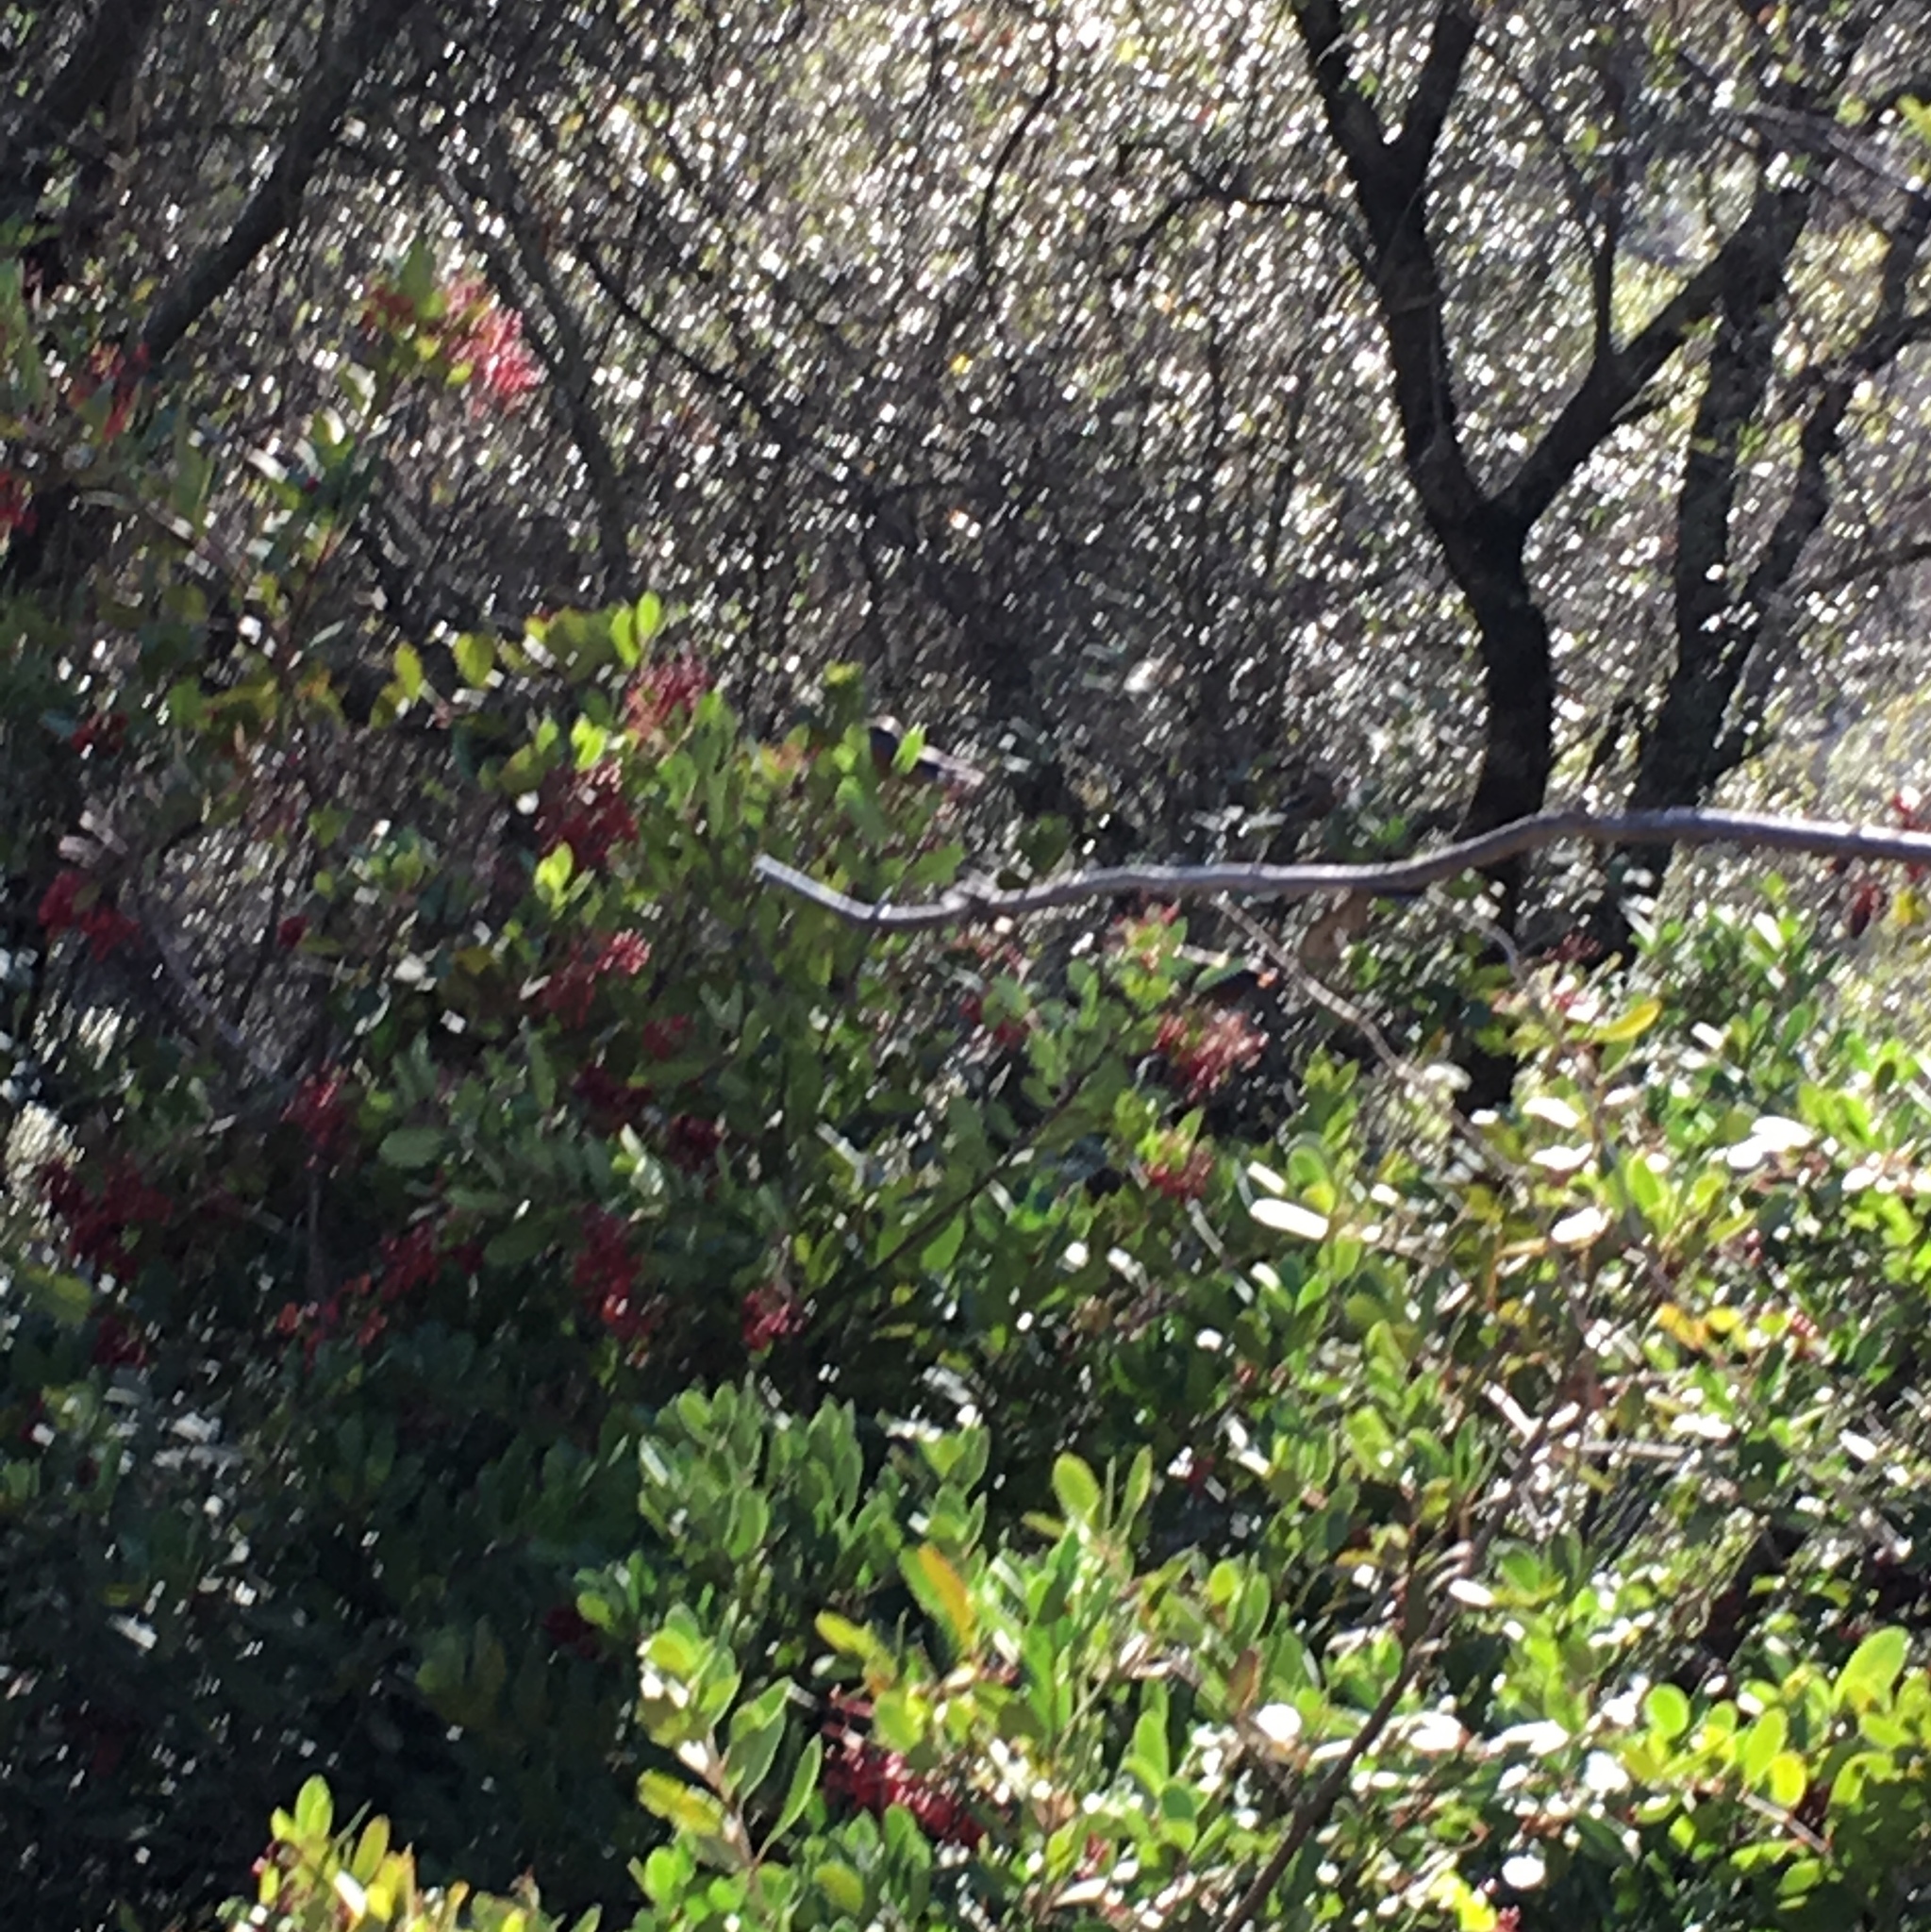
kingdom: Animalia
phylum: Chordata
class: Aves
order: Passeriformes
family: Turdidae
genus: Sialia
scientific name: Sialia mexicana
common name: Western bluebird
